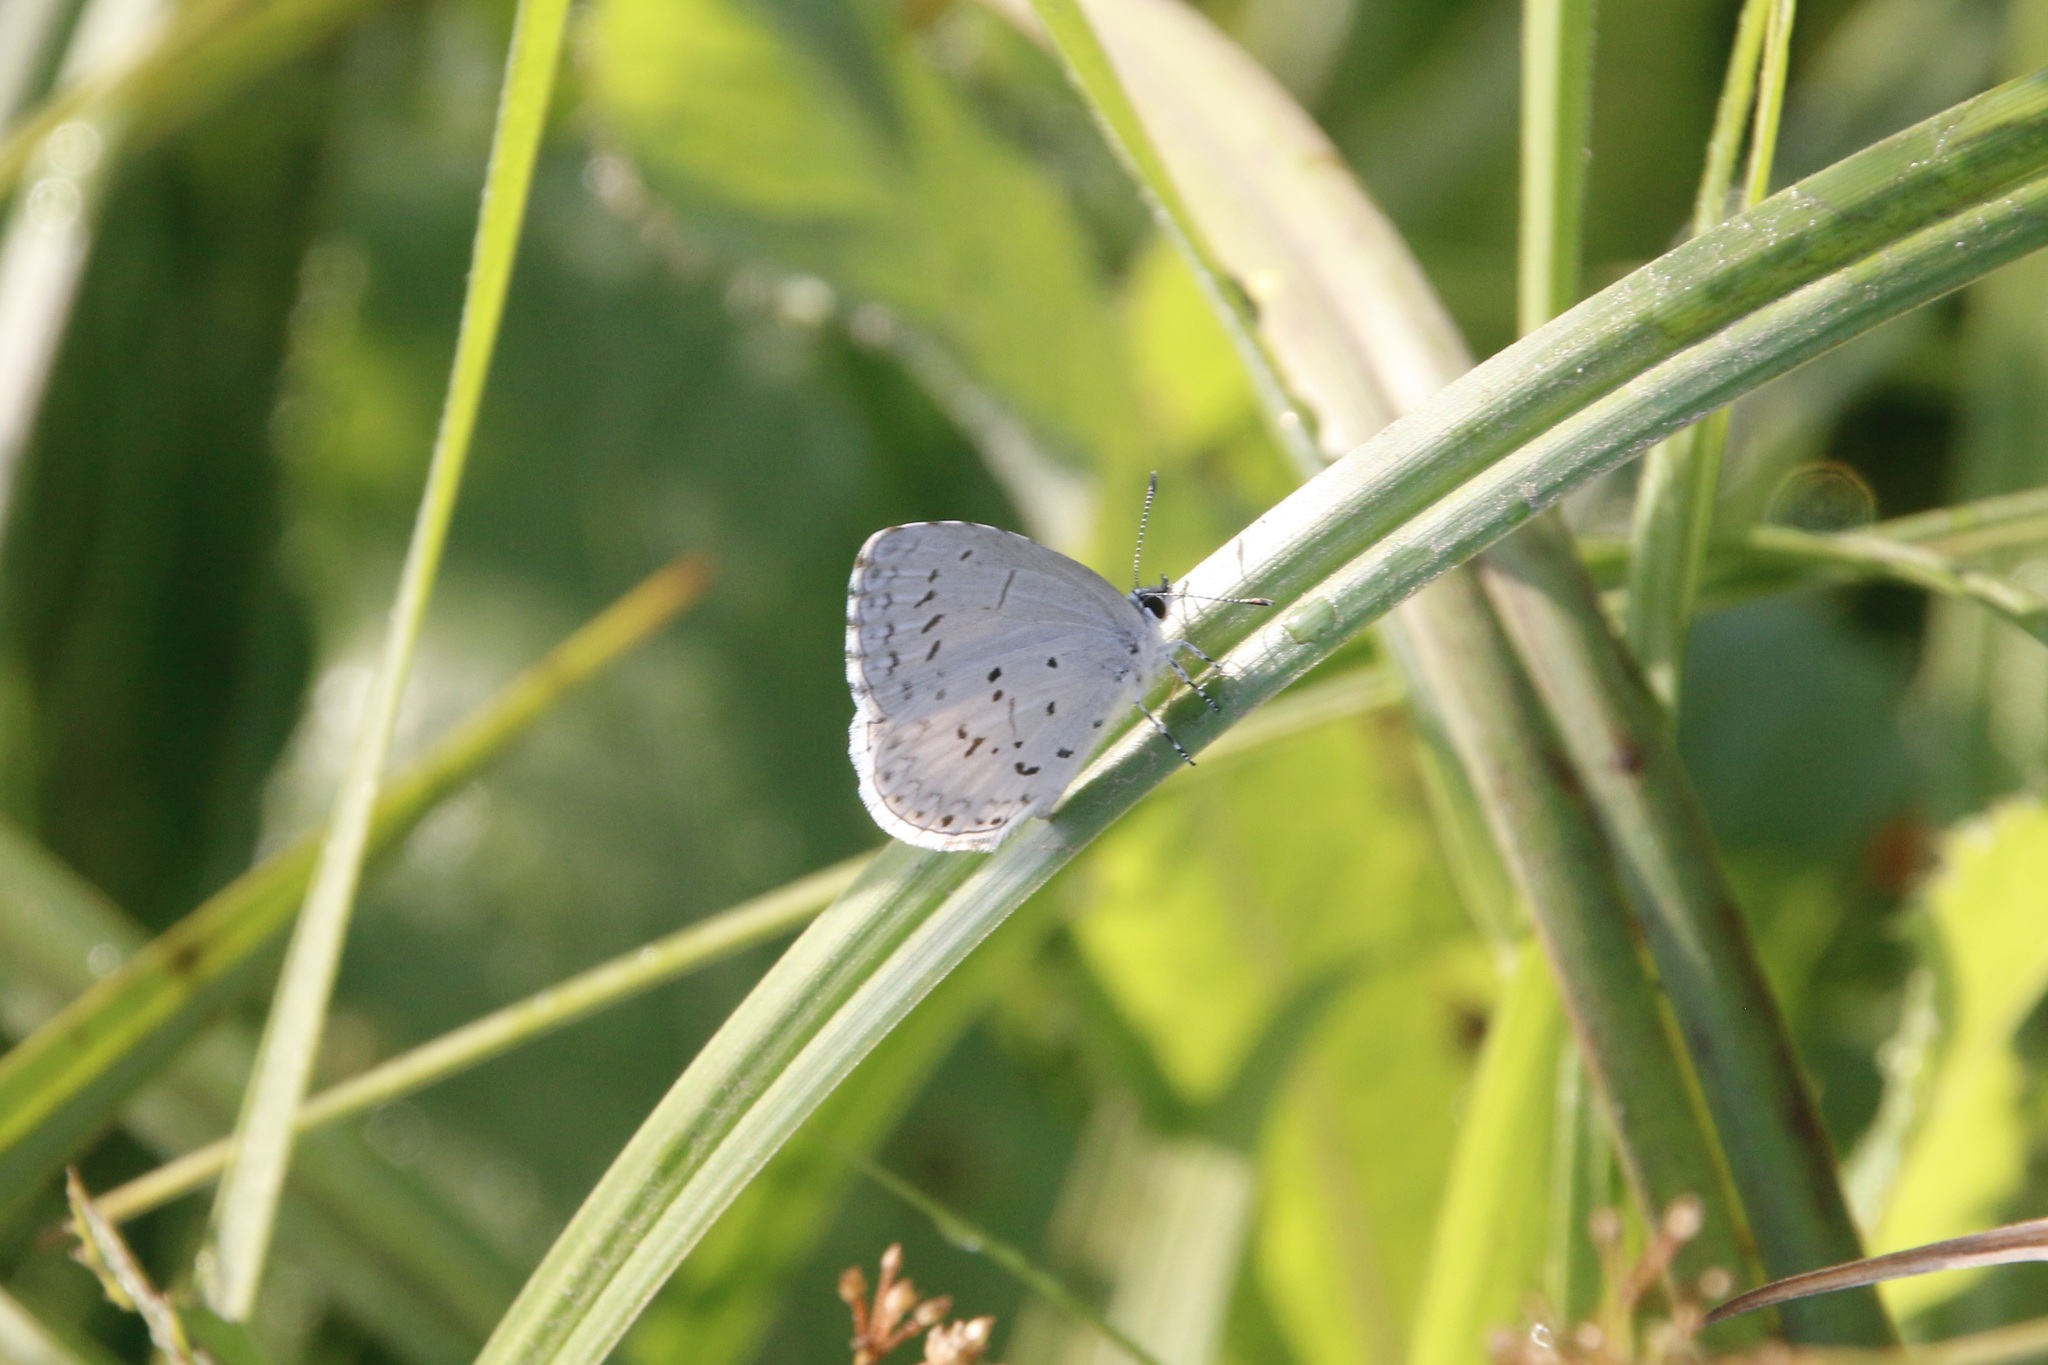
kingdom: Animalia
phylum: Arthropoda
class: Insecta
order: Lepidoptera
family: Lycaenidae
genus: Cyaniris
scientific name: Cyaniris neglecta
